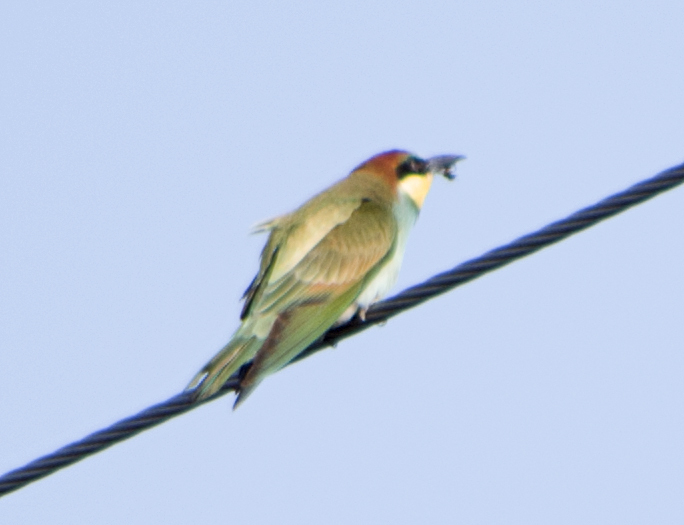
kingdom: Animalia
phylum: Chordata
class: Aves
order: Coraciiformes
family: Meropidae
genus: Merops
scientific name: Merops apiaster
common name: European bee-eater
